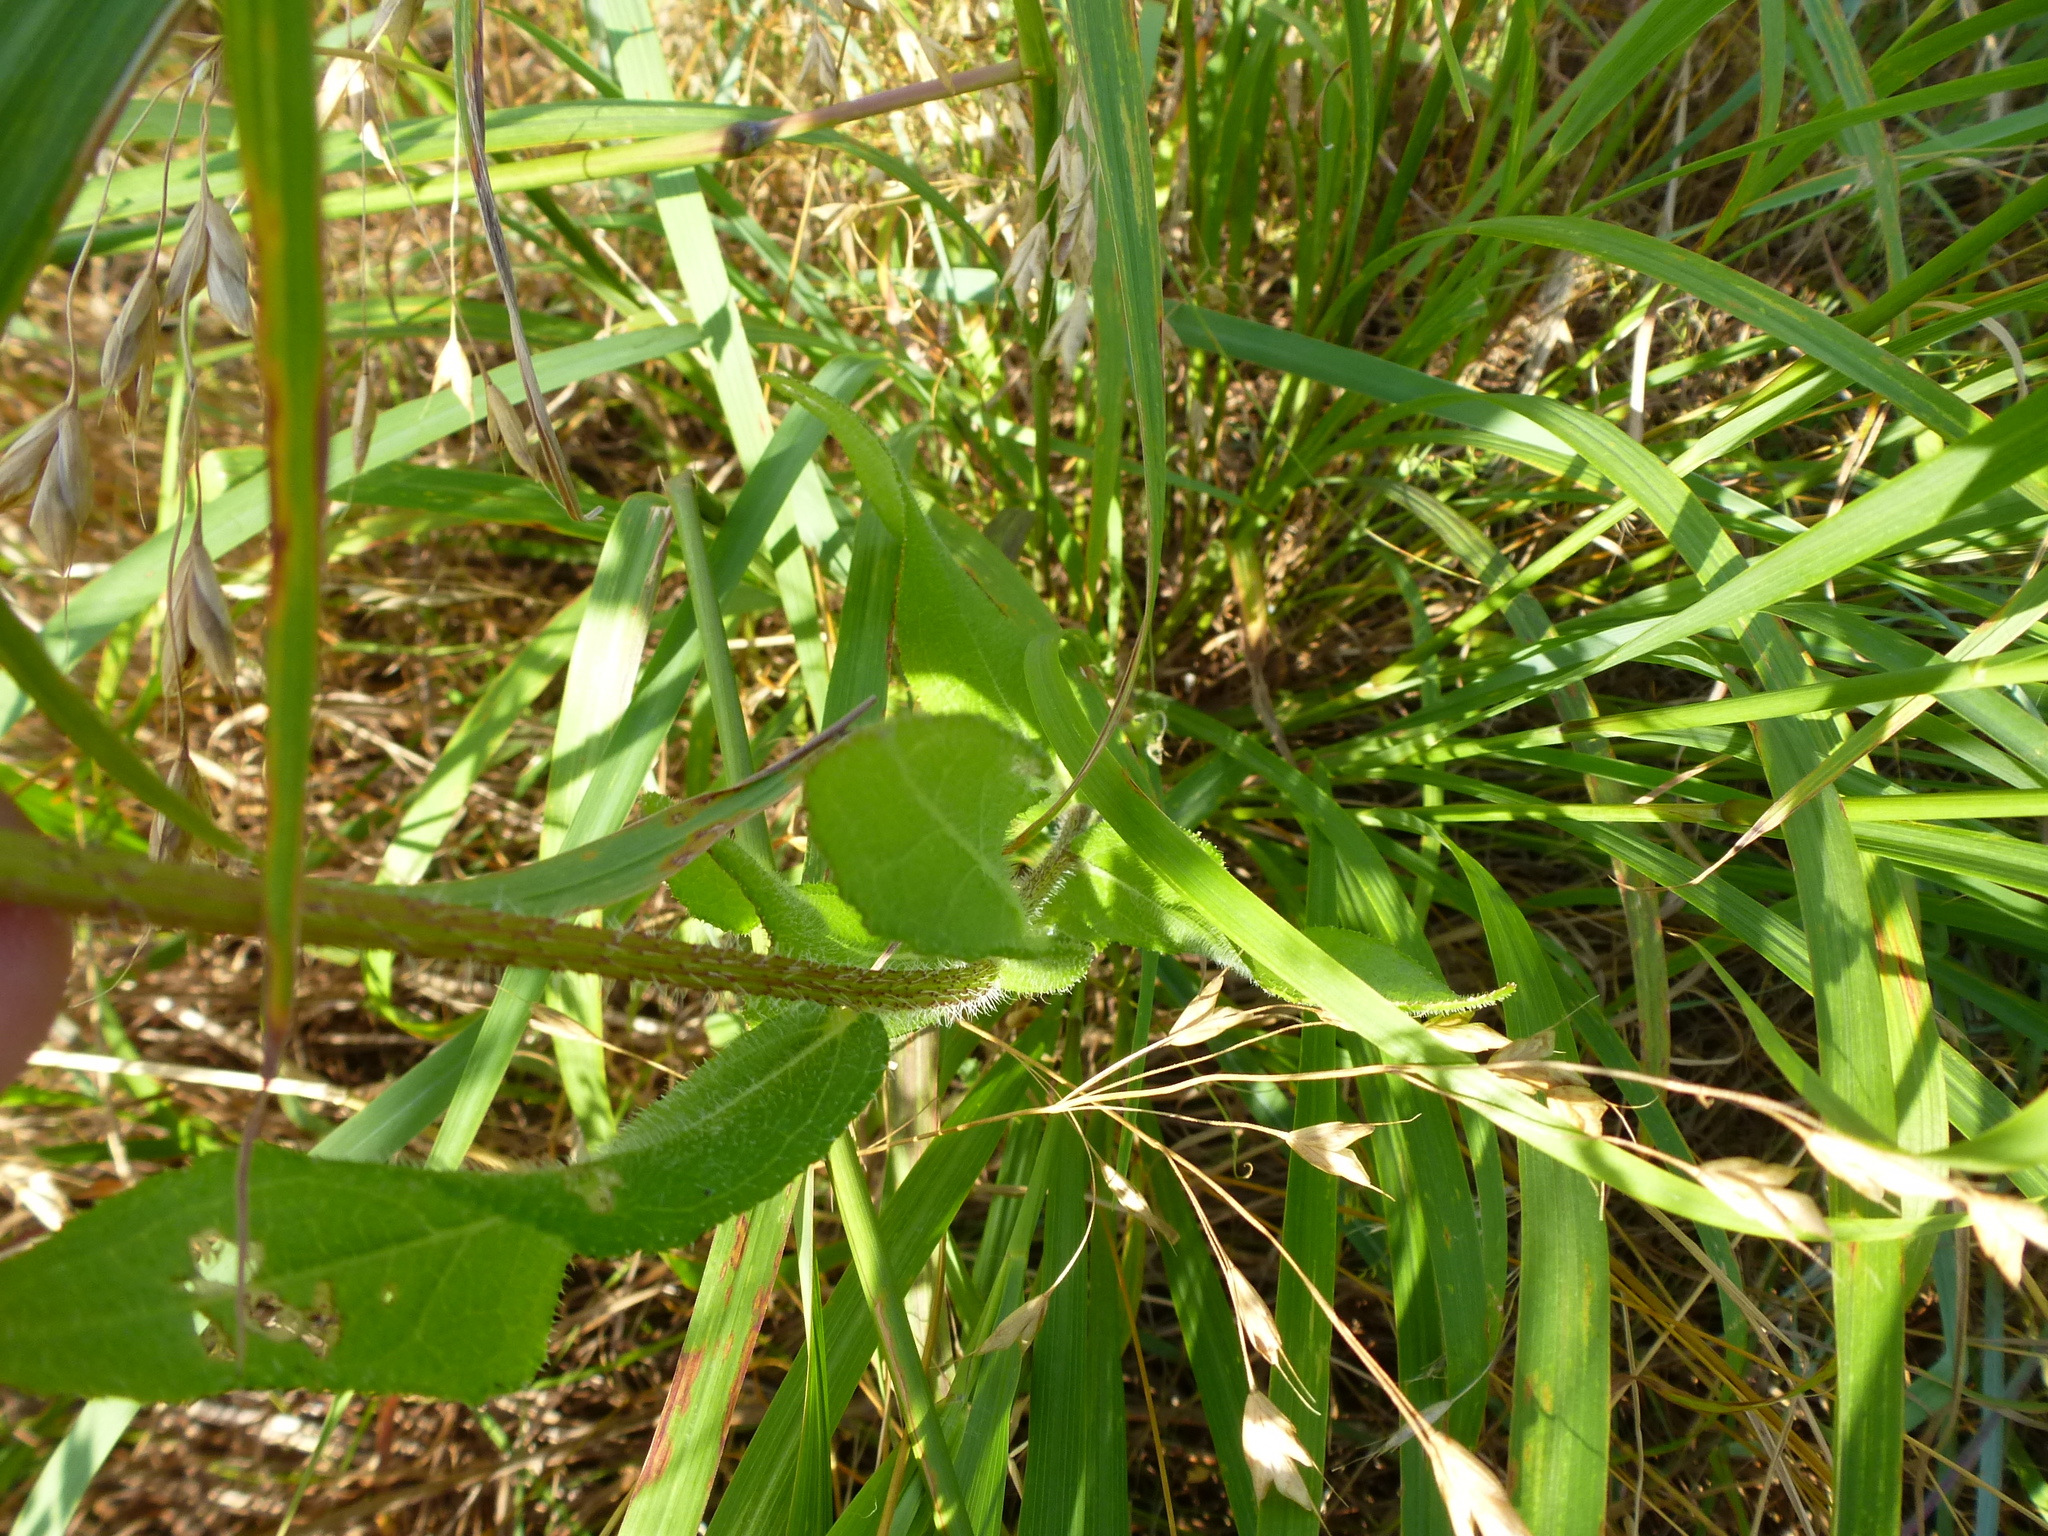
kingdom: Plantae
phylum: Tracheophyta
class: Magnoliopsida
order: Asterales
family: Asteraceae
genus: Rudbeckia
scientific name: Rudbeckia hirta
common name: Black-eyed-susan
